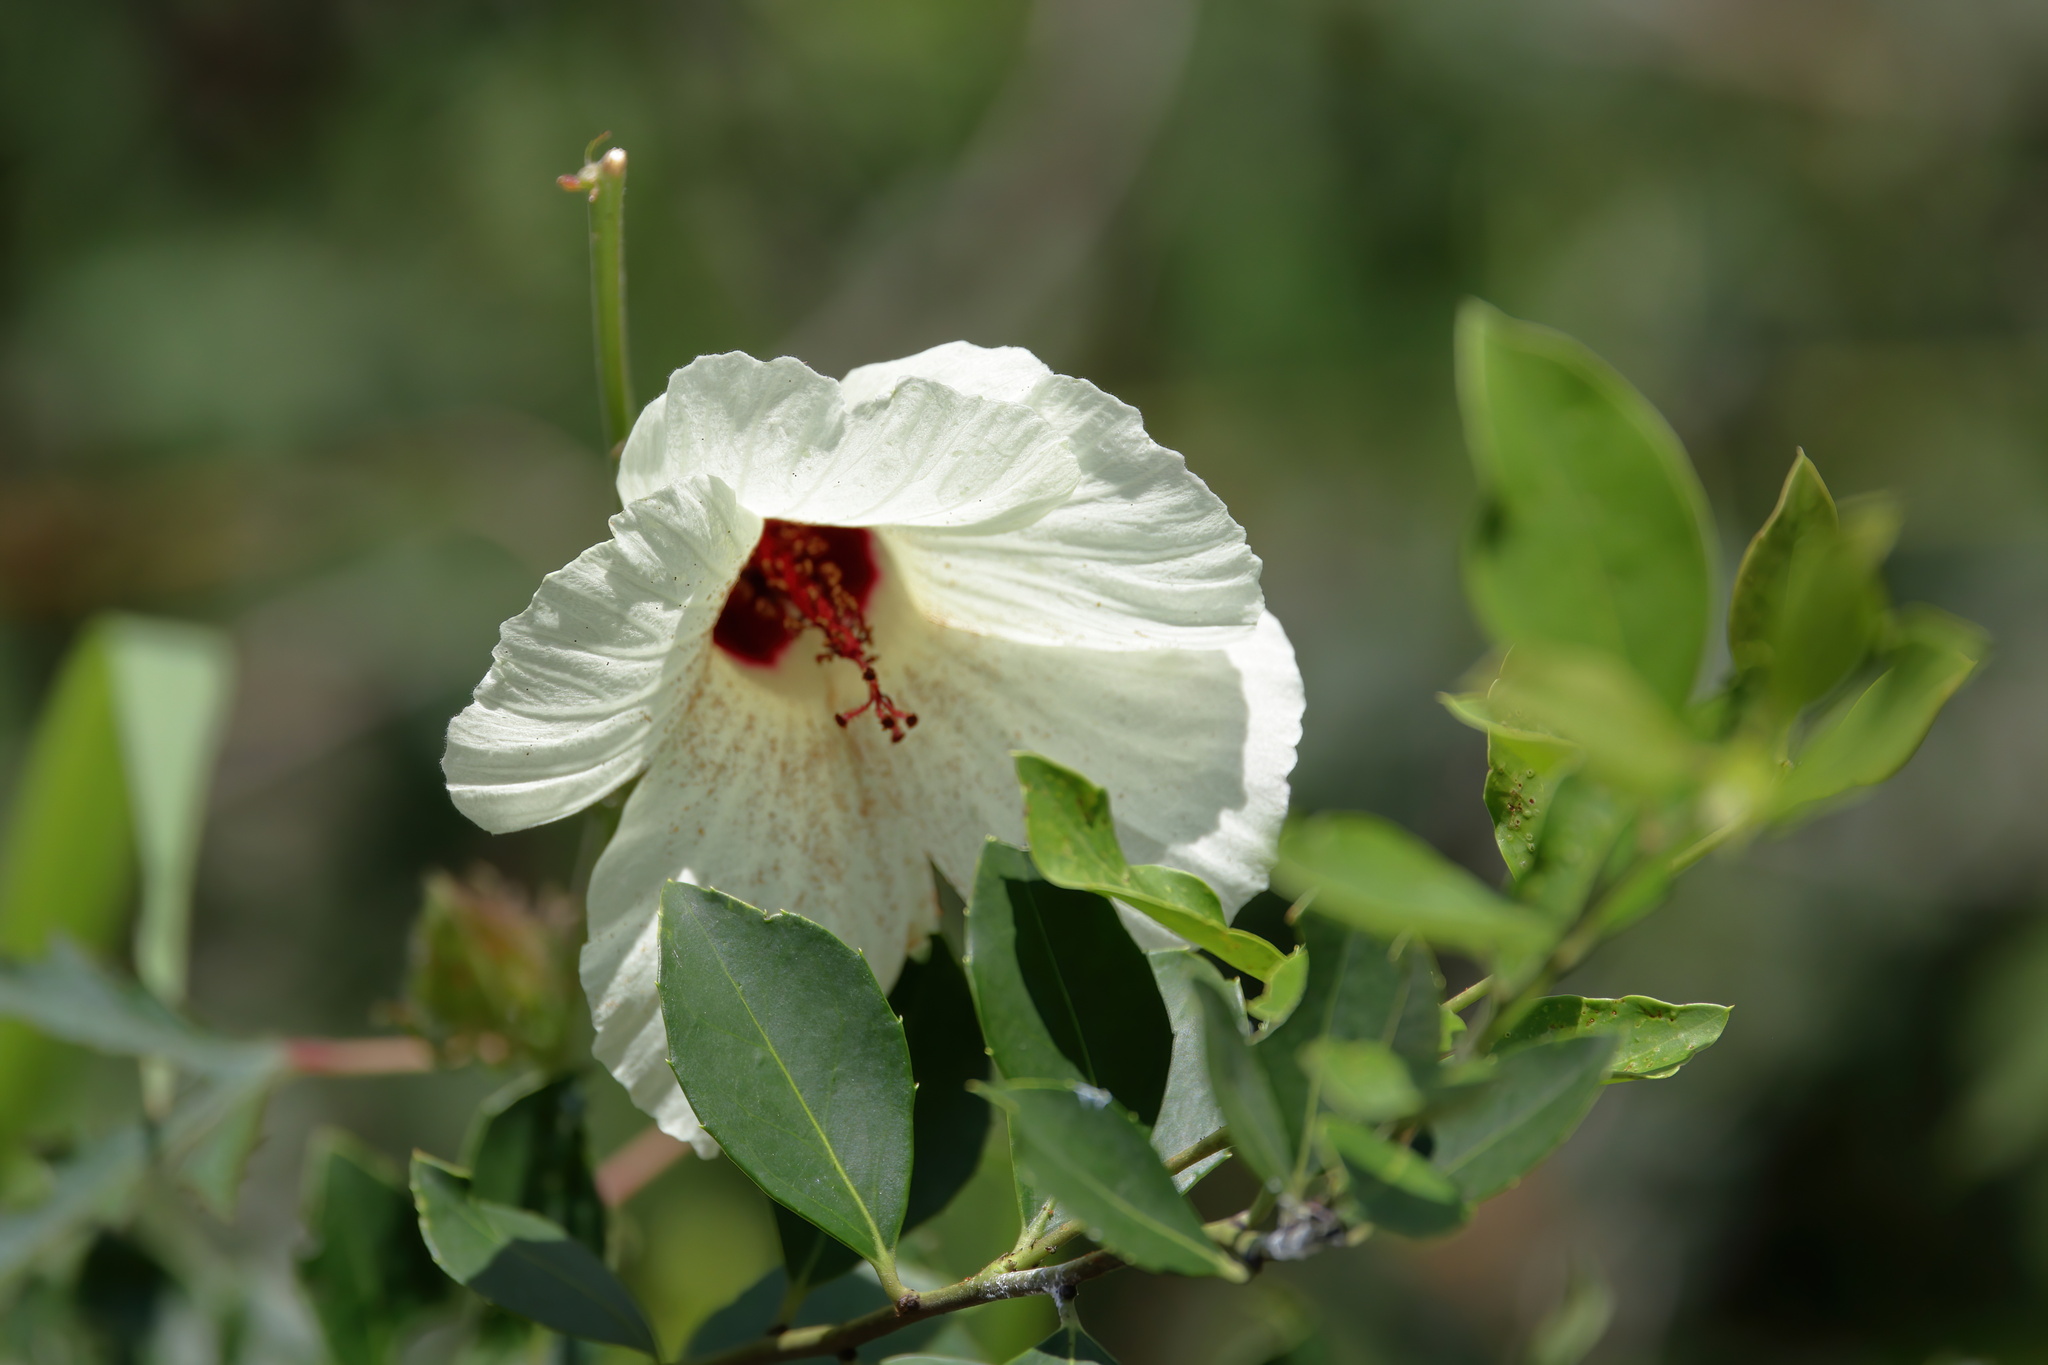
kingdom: Plantae
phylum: Tracheophyta
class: Magnoliopsida
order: Malvales
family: Malvaceae
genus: Hibiscus
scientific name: Hibiscus aculeatus
